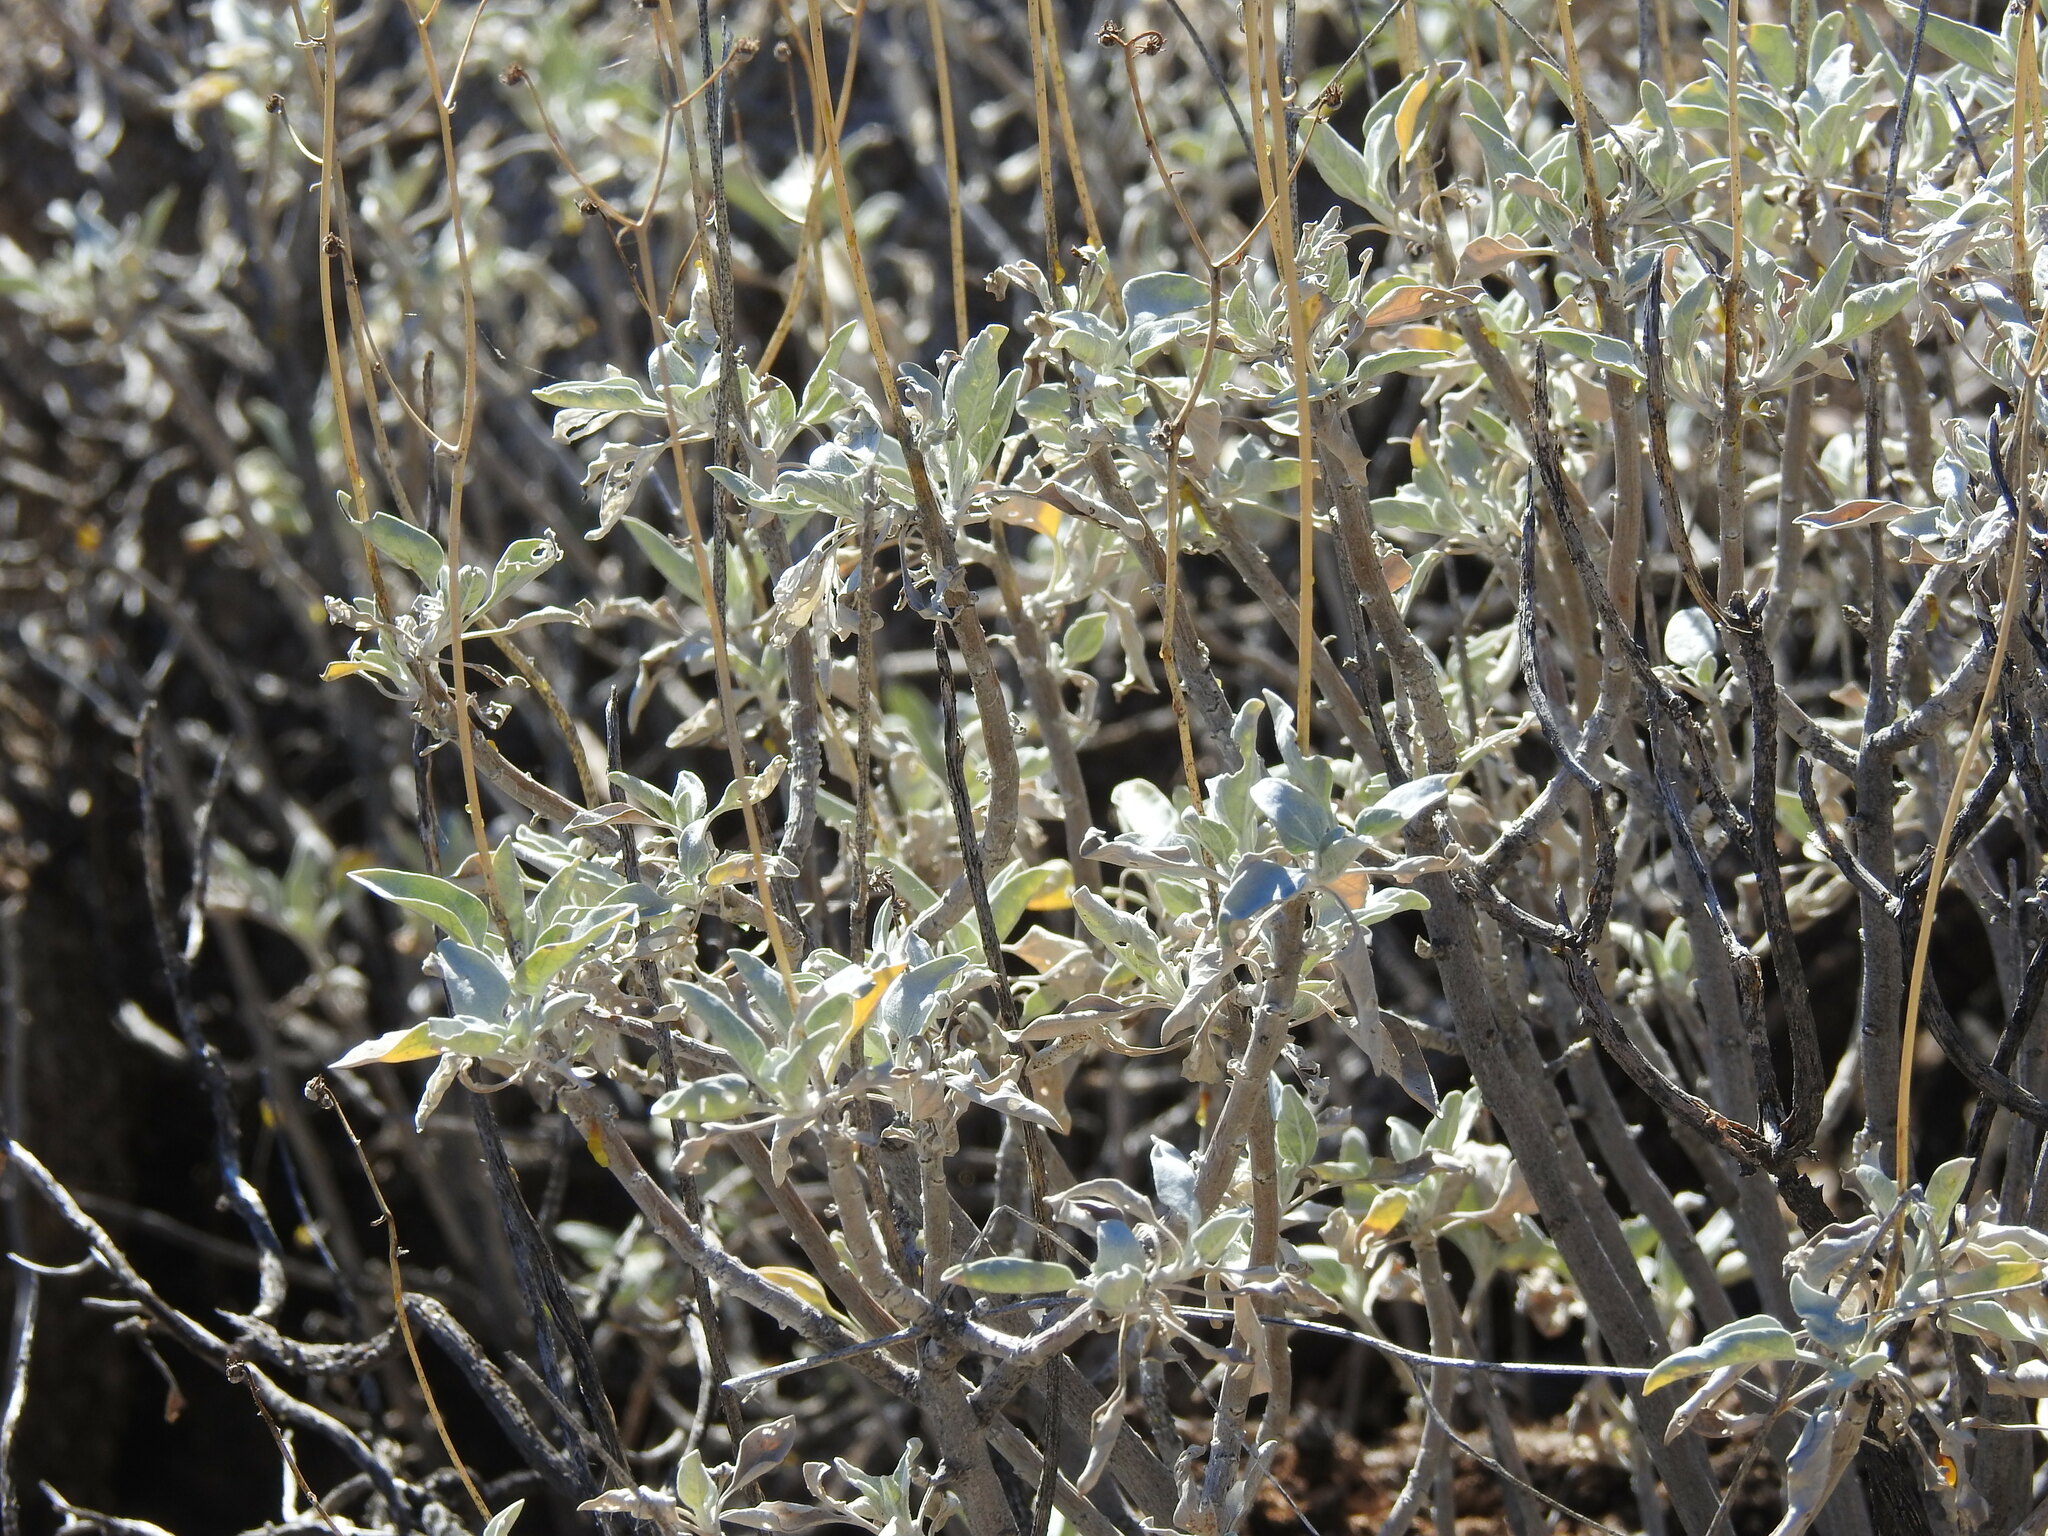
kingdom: Plantae
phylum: Tracheophyta
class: Magnoliopsida
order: Asterales
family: Asteraceae
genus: Encelia
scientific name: Encelia farinosa
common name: Brittlebush
